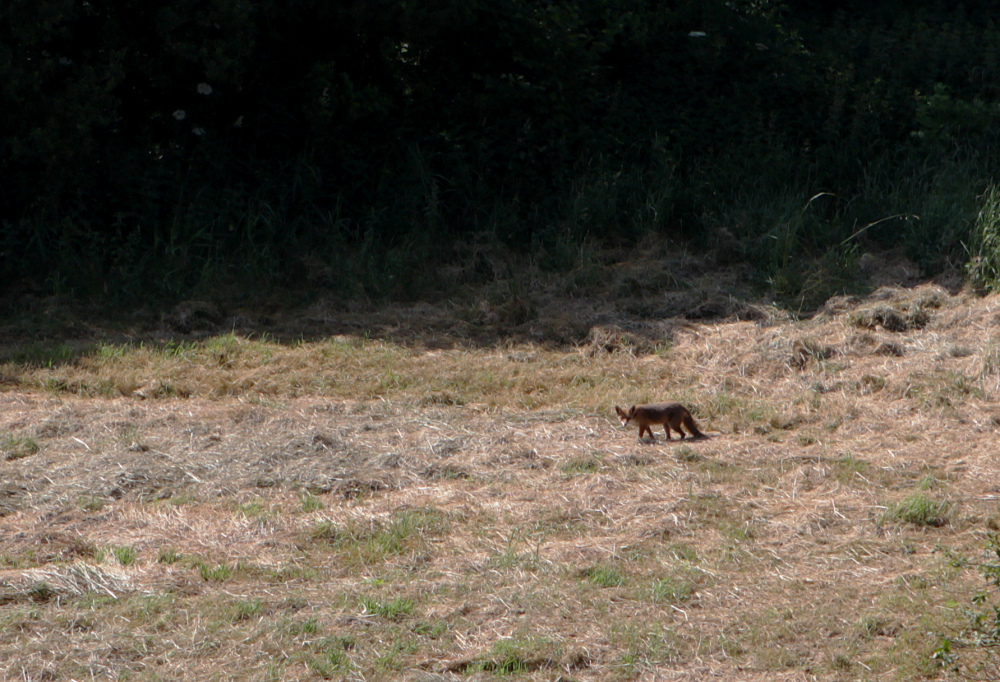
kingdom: Animalia
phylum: Chordata
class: Mammalia
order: Carnivora
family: Canidae
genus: Vulpes
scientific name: Vulpes vulpes
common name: Red fox
